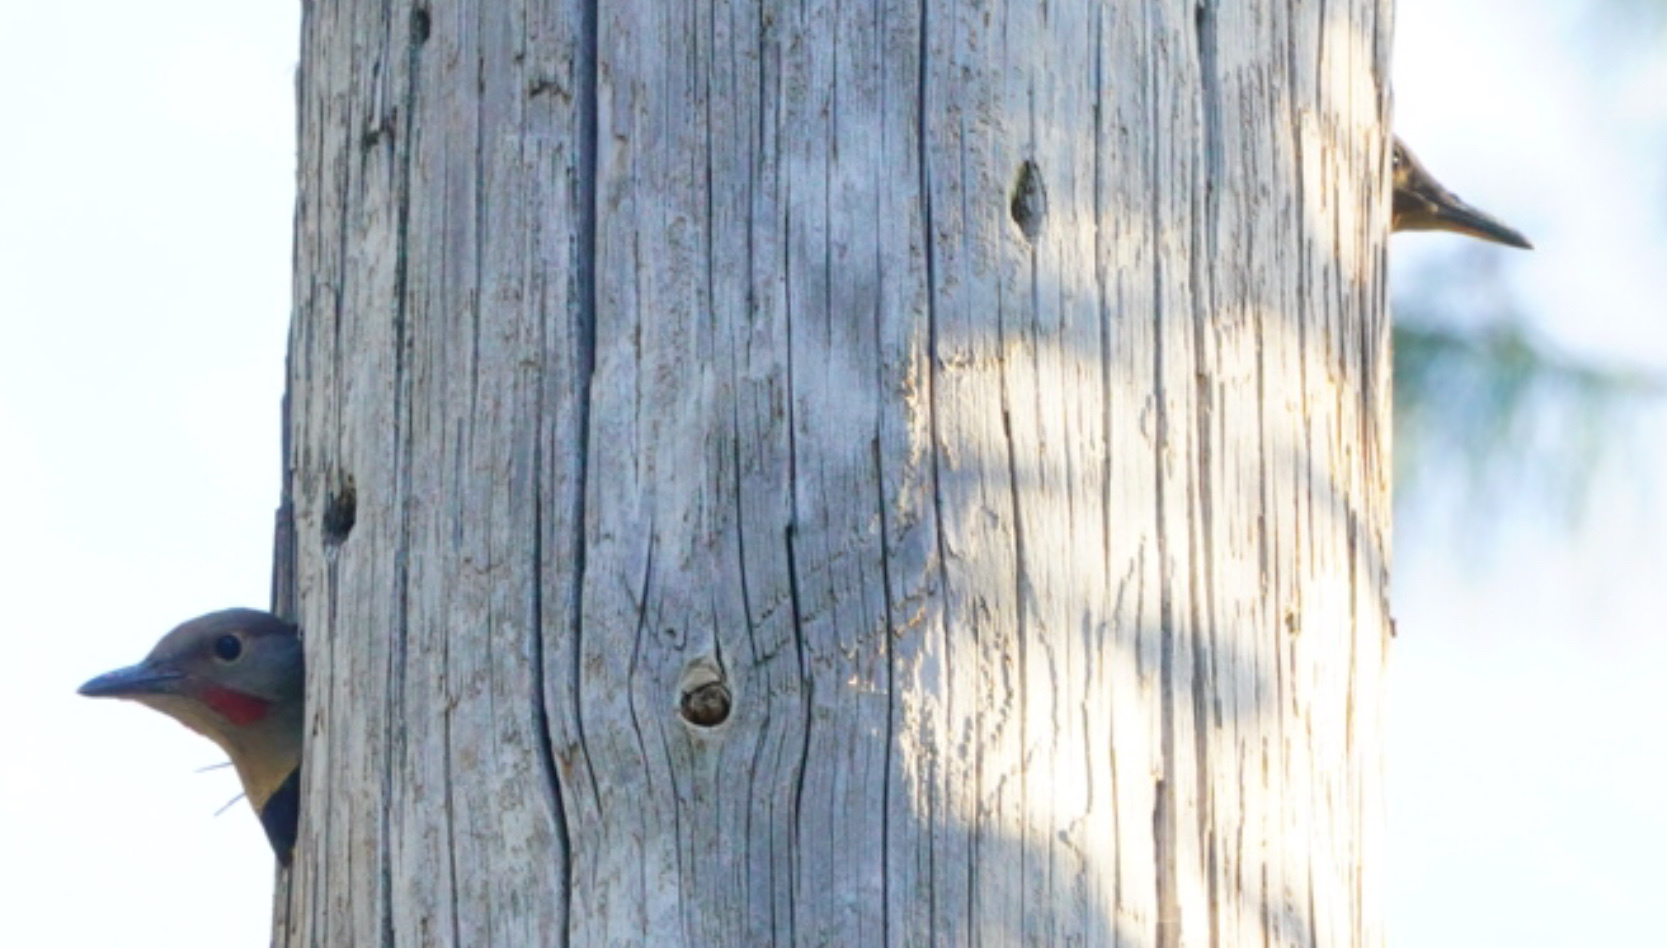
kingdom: Animalia
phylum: Chordata
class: Aves
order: Piciformes
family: Picidae
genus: Colaptes
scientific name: Colaptes auratus
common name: Northern flicker
